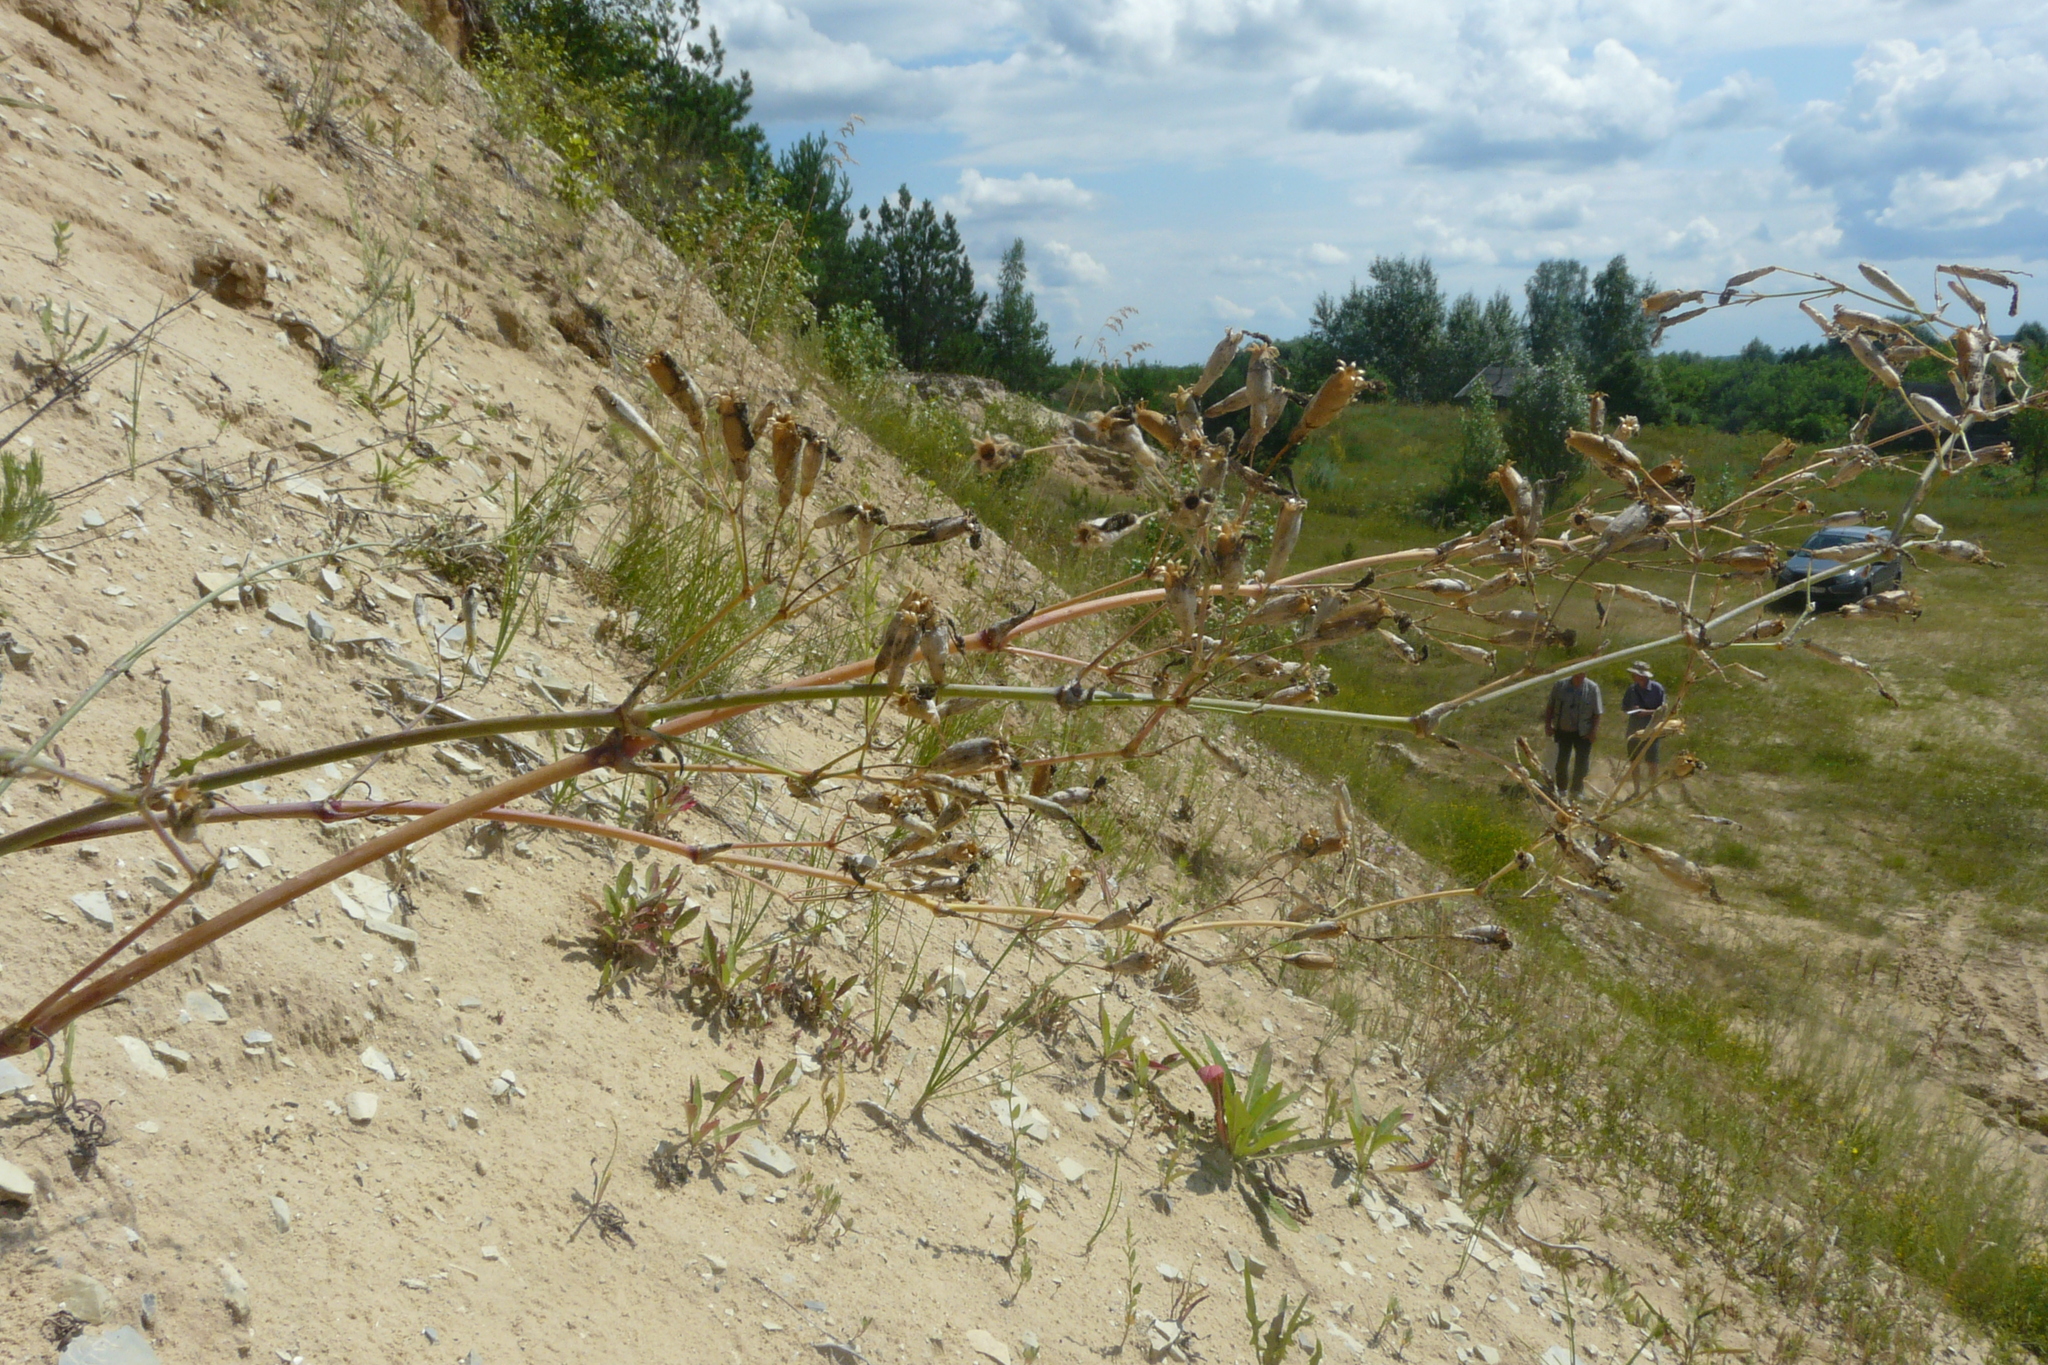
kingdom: Plantae
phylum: Tracheophyta
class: Magnoliopsida
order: Caryophyllales
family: Caryophyllaceae
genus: Silene
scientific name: Silene chlorantha
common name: Yellowgreen catchfly
